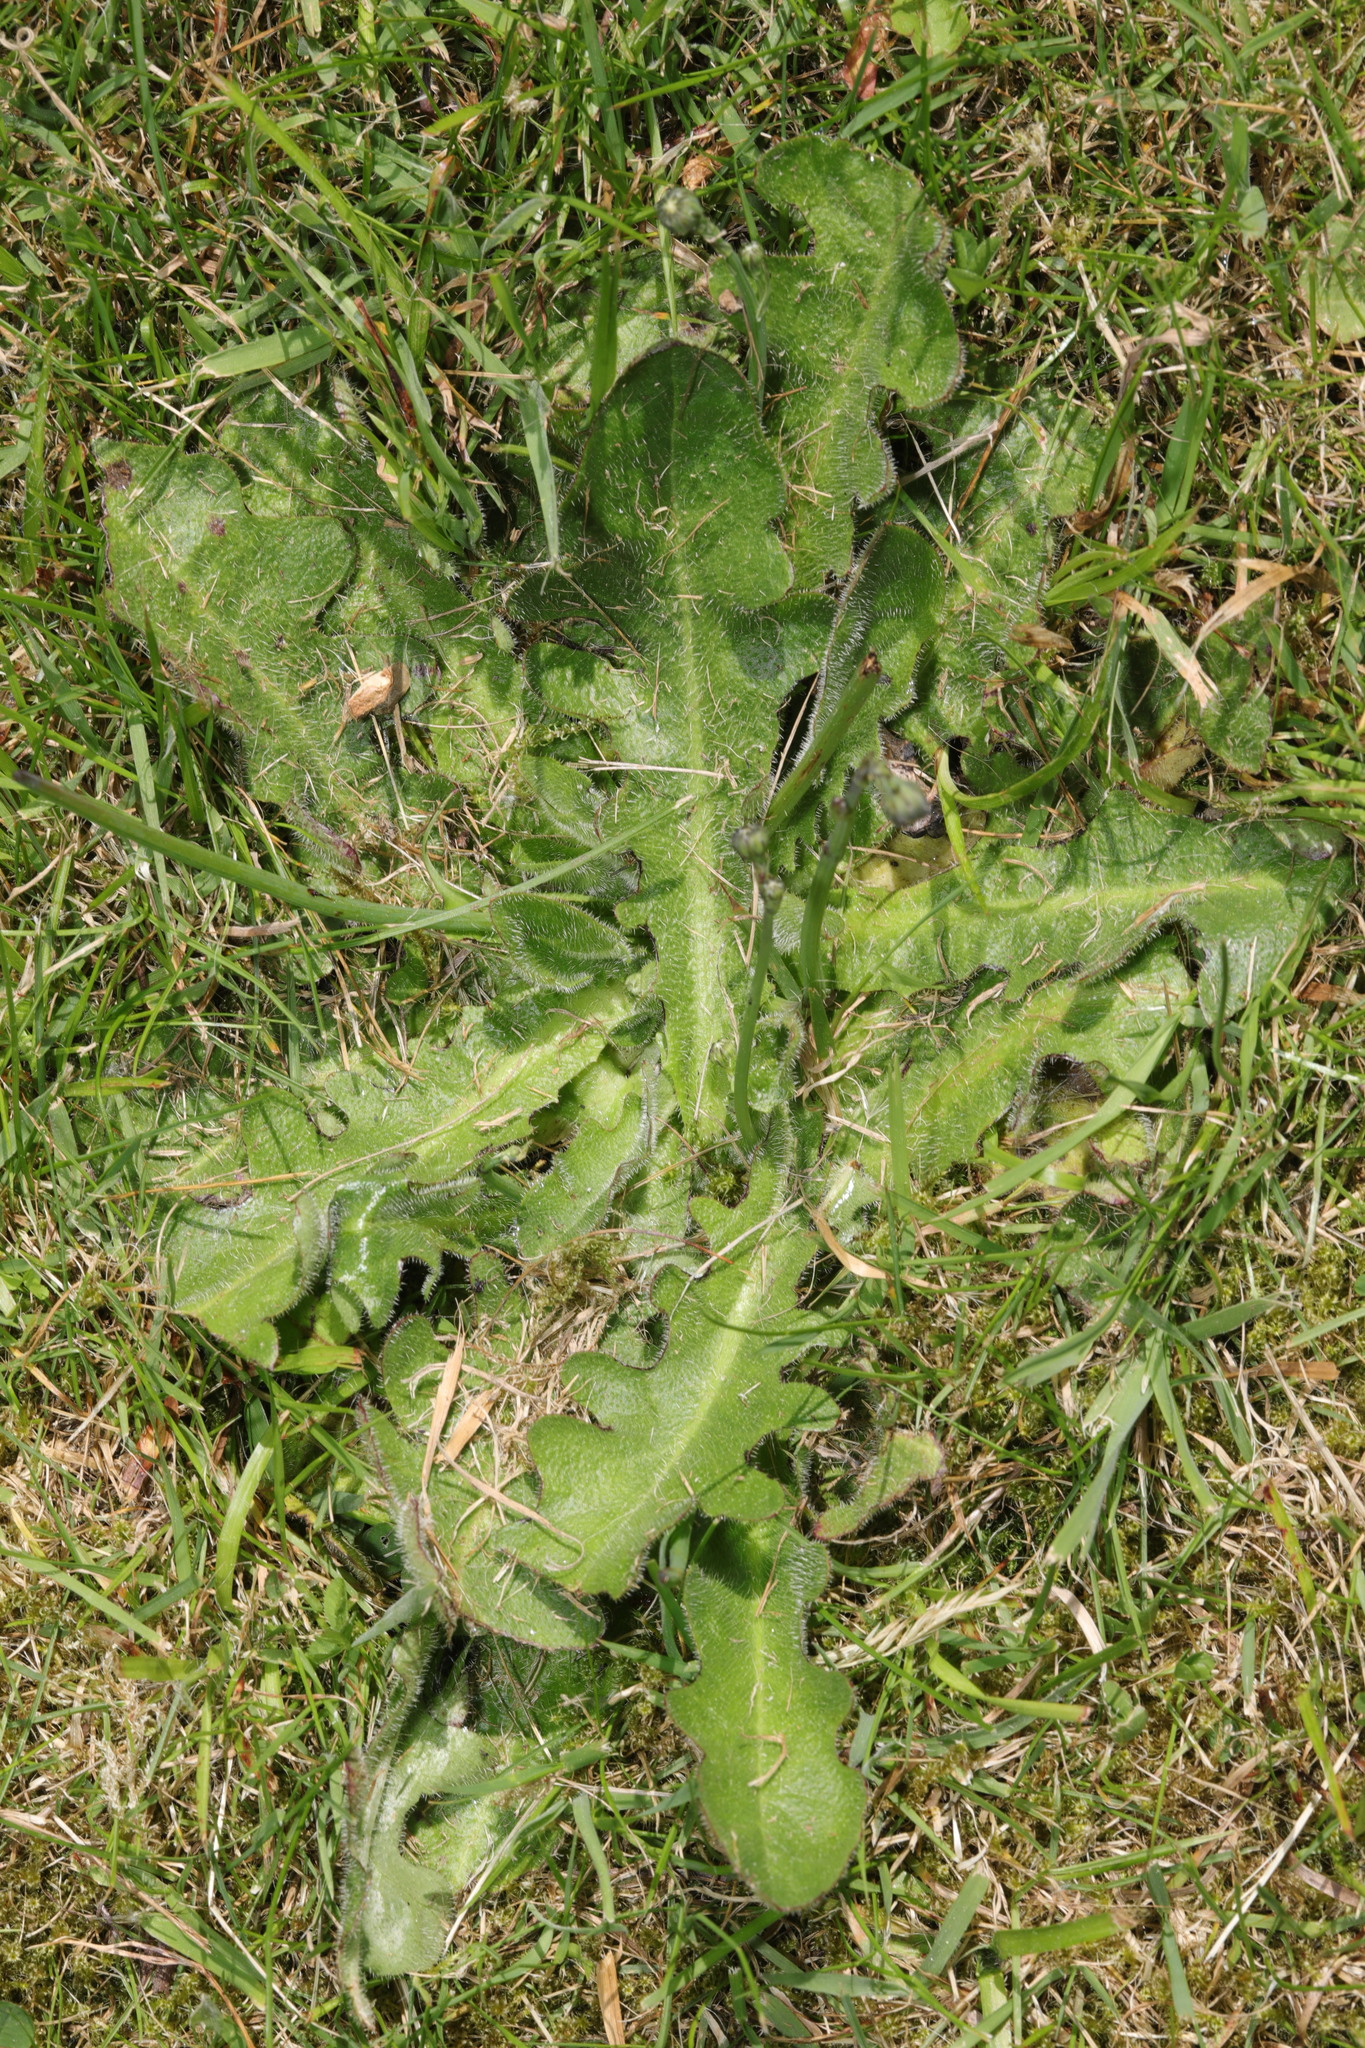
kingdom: Plantae
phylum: Tracheophyta
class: Magnoliopsida
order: Asterales
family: Asteraceae
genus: Hypochaeris
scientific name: Hypochaeris radicata
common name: Flatweed
